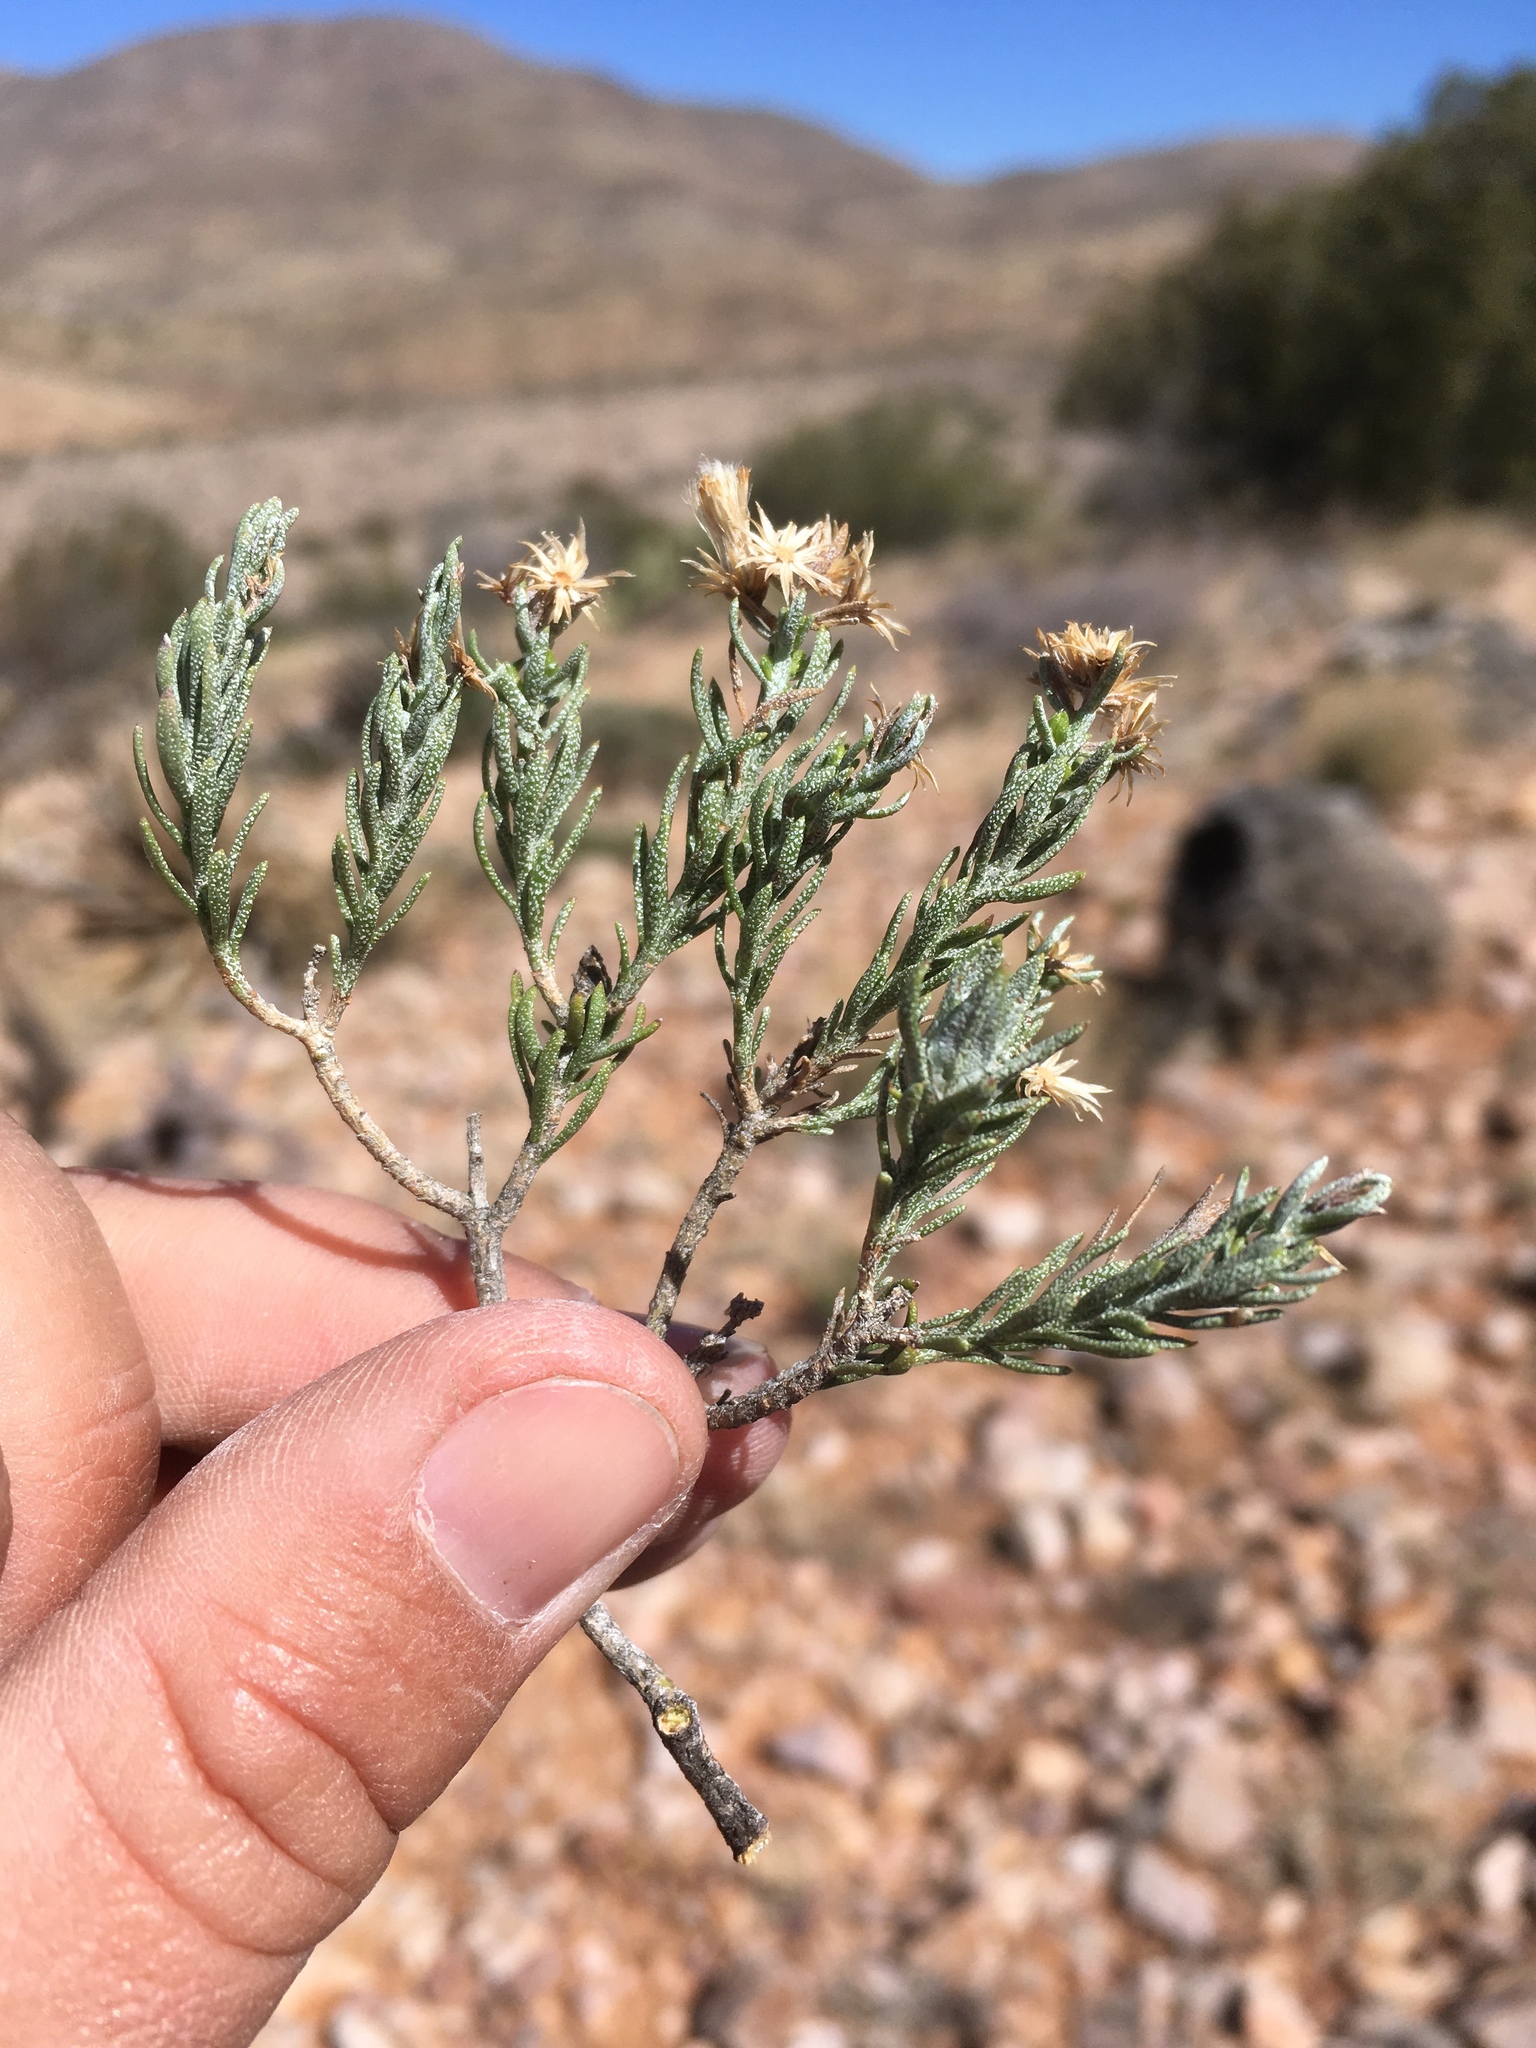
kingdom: Plantae
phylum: Tracheophyta
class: Magnoliopsida
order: Asterales
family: Asteraceae
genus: Ericameria
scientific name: Ericameria laricifolia
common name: Turpentine-bush
